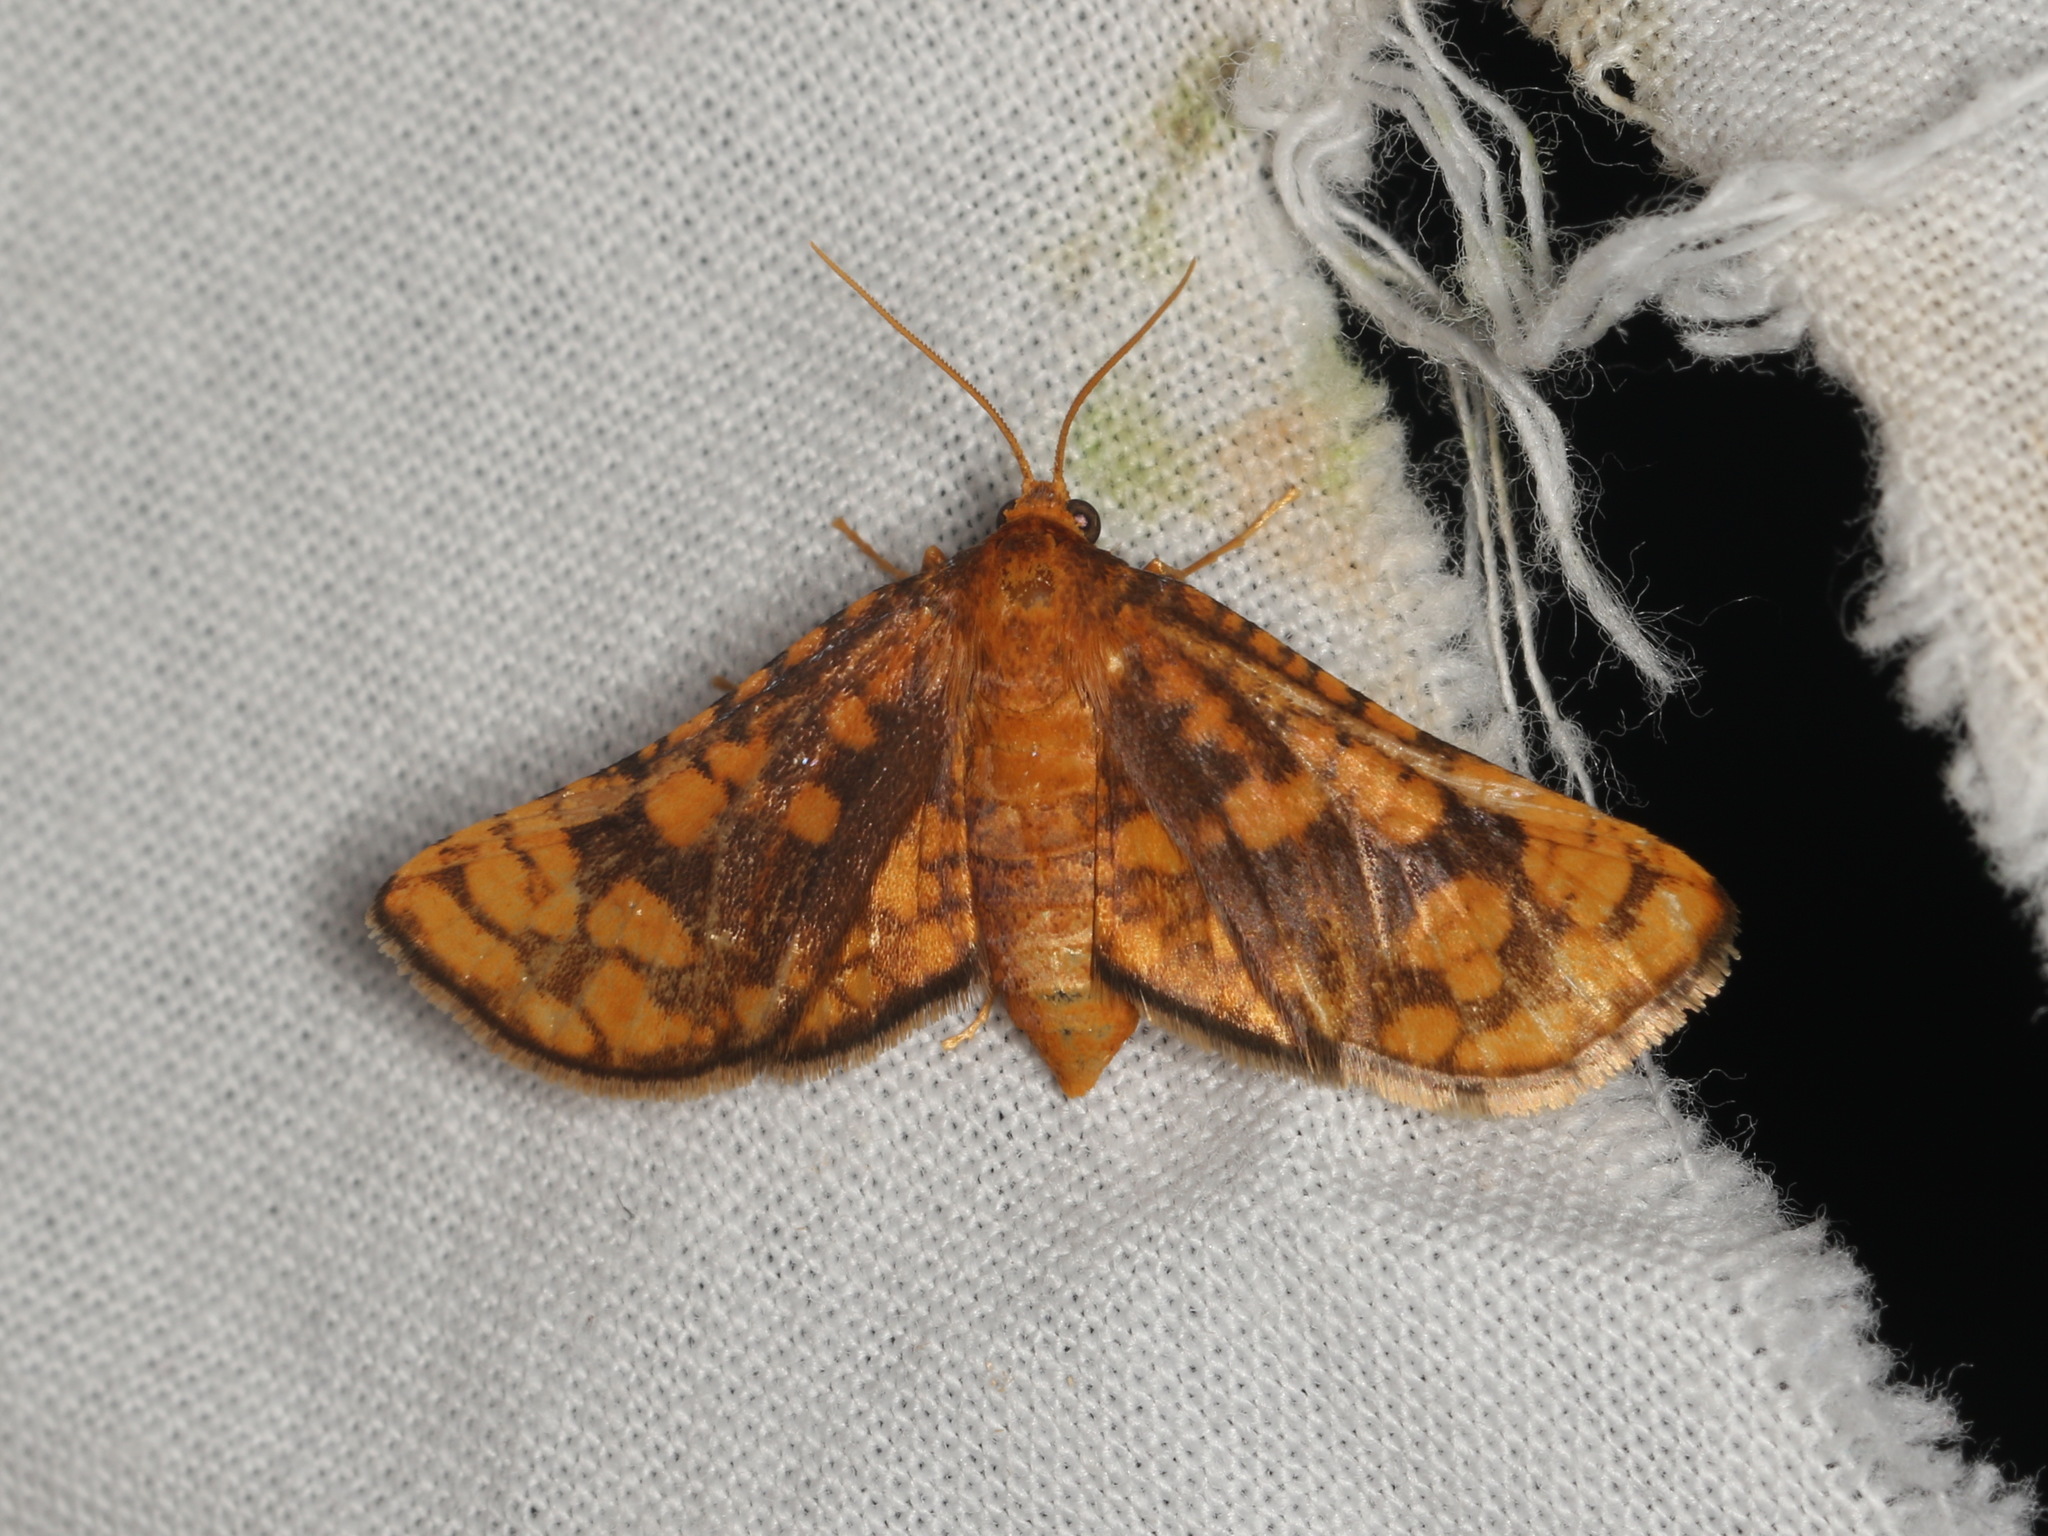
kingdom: Animalia
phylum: Arthropoda
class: Insecta
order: Lepidoptera
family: Thyrididae
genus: Abrotesia
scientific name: Abrotesia griphodes
